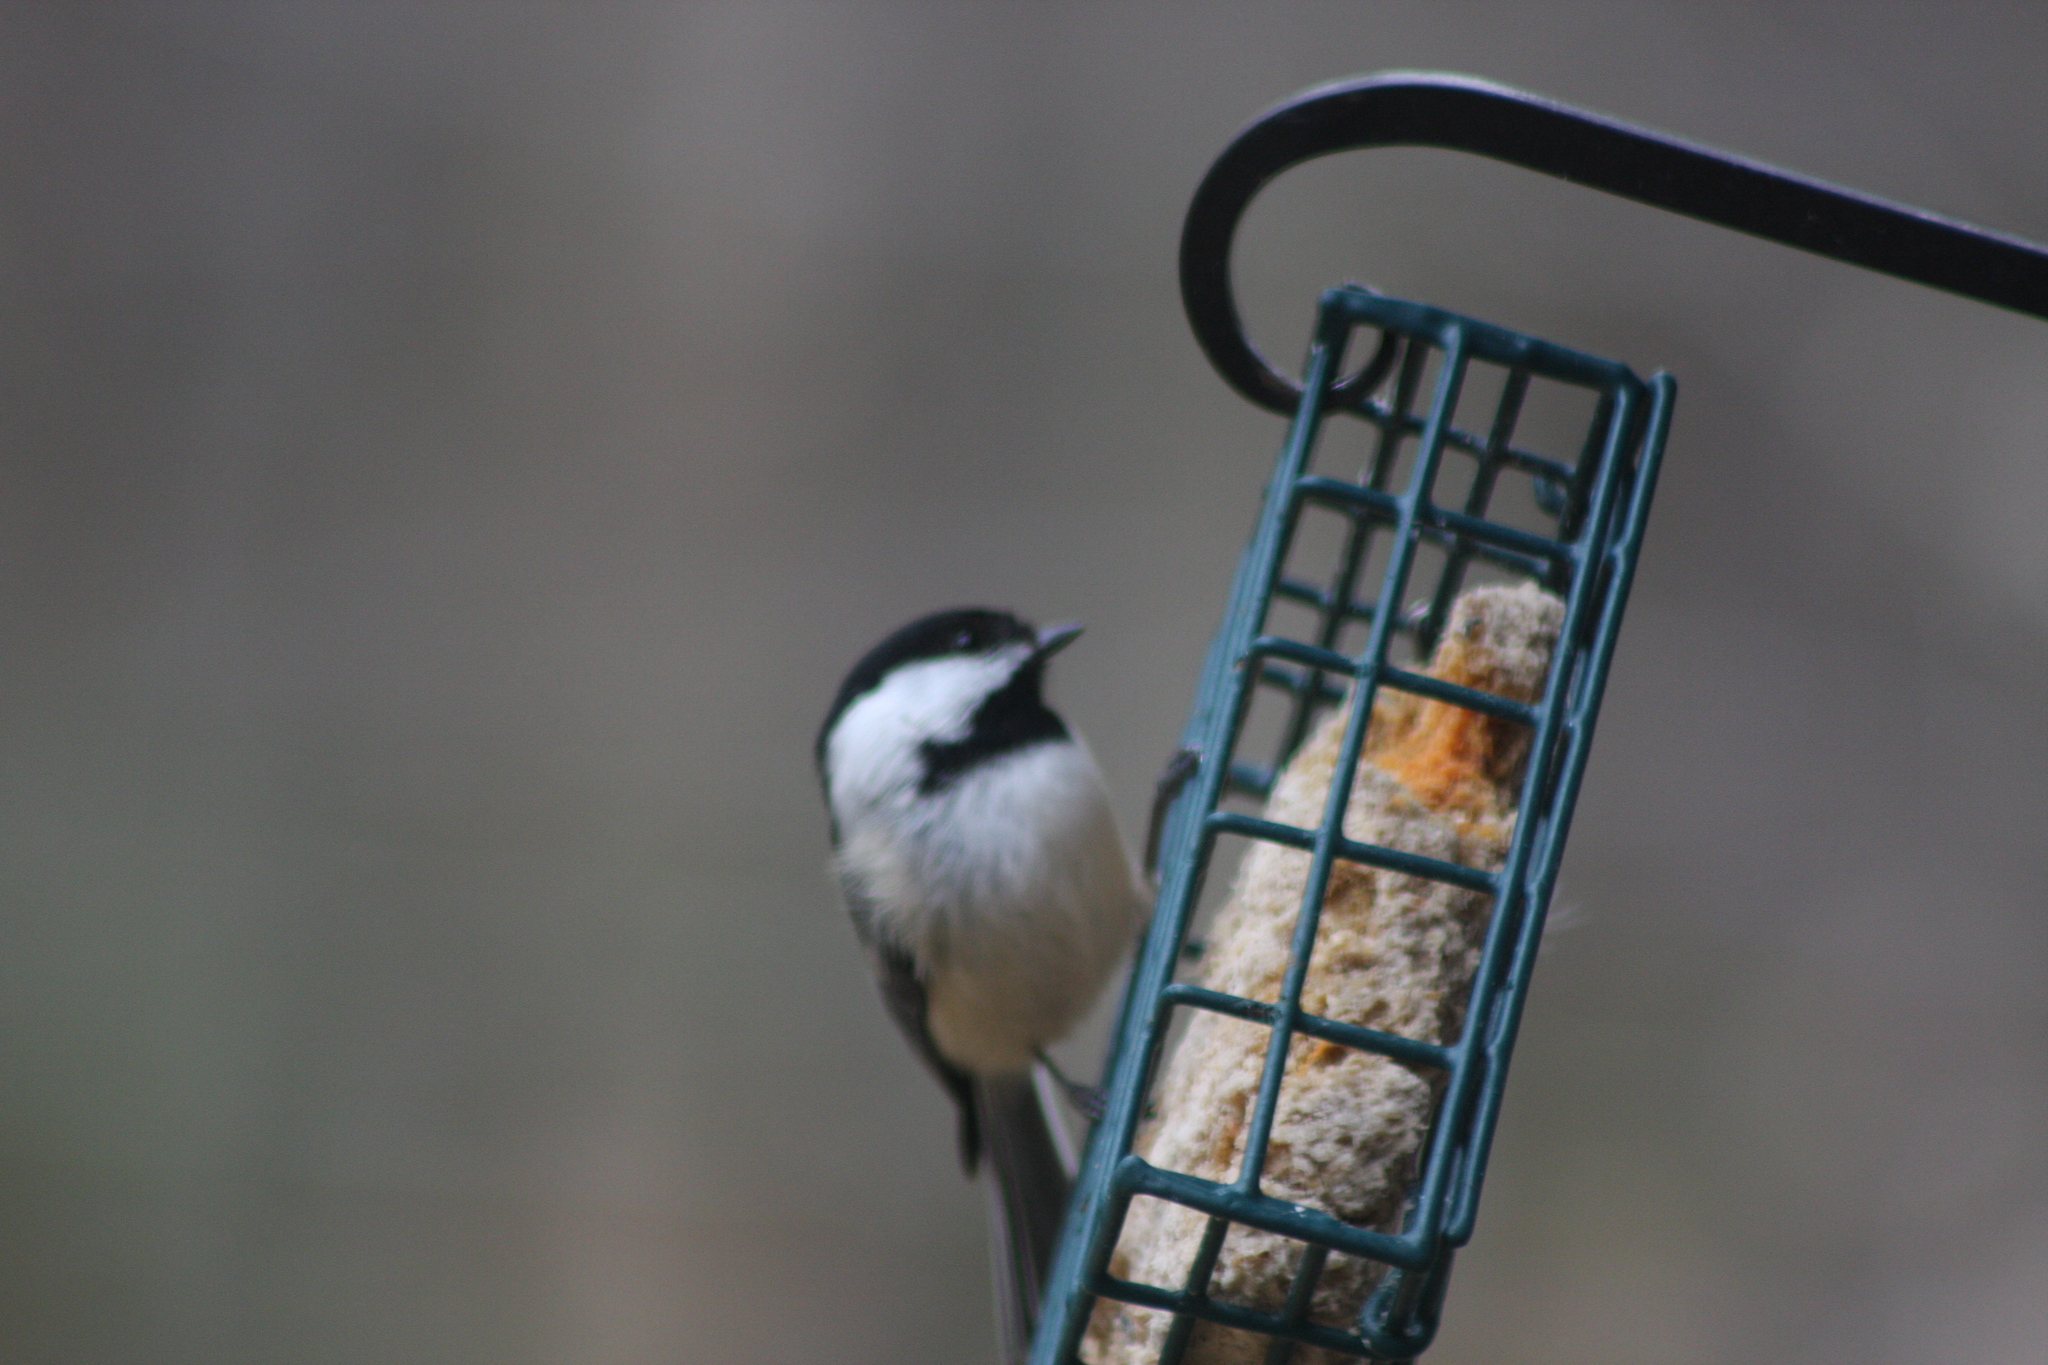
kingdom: Animalia
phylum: Chordata
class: Aves
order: Passeriformes
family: Paridae
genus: Poecile
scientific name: Poecile atricapillus
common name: Black-capped chickadee
